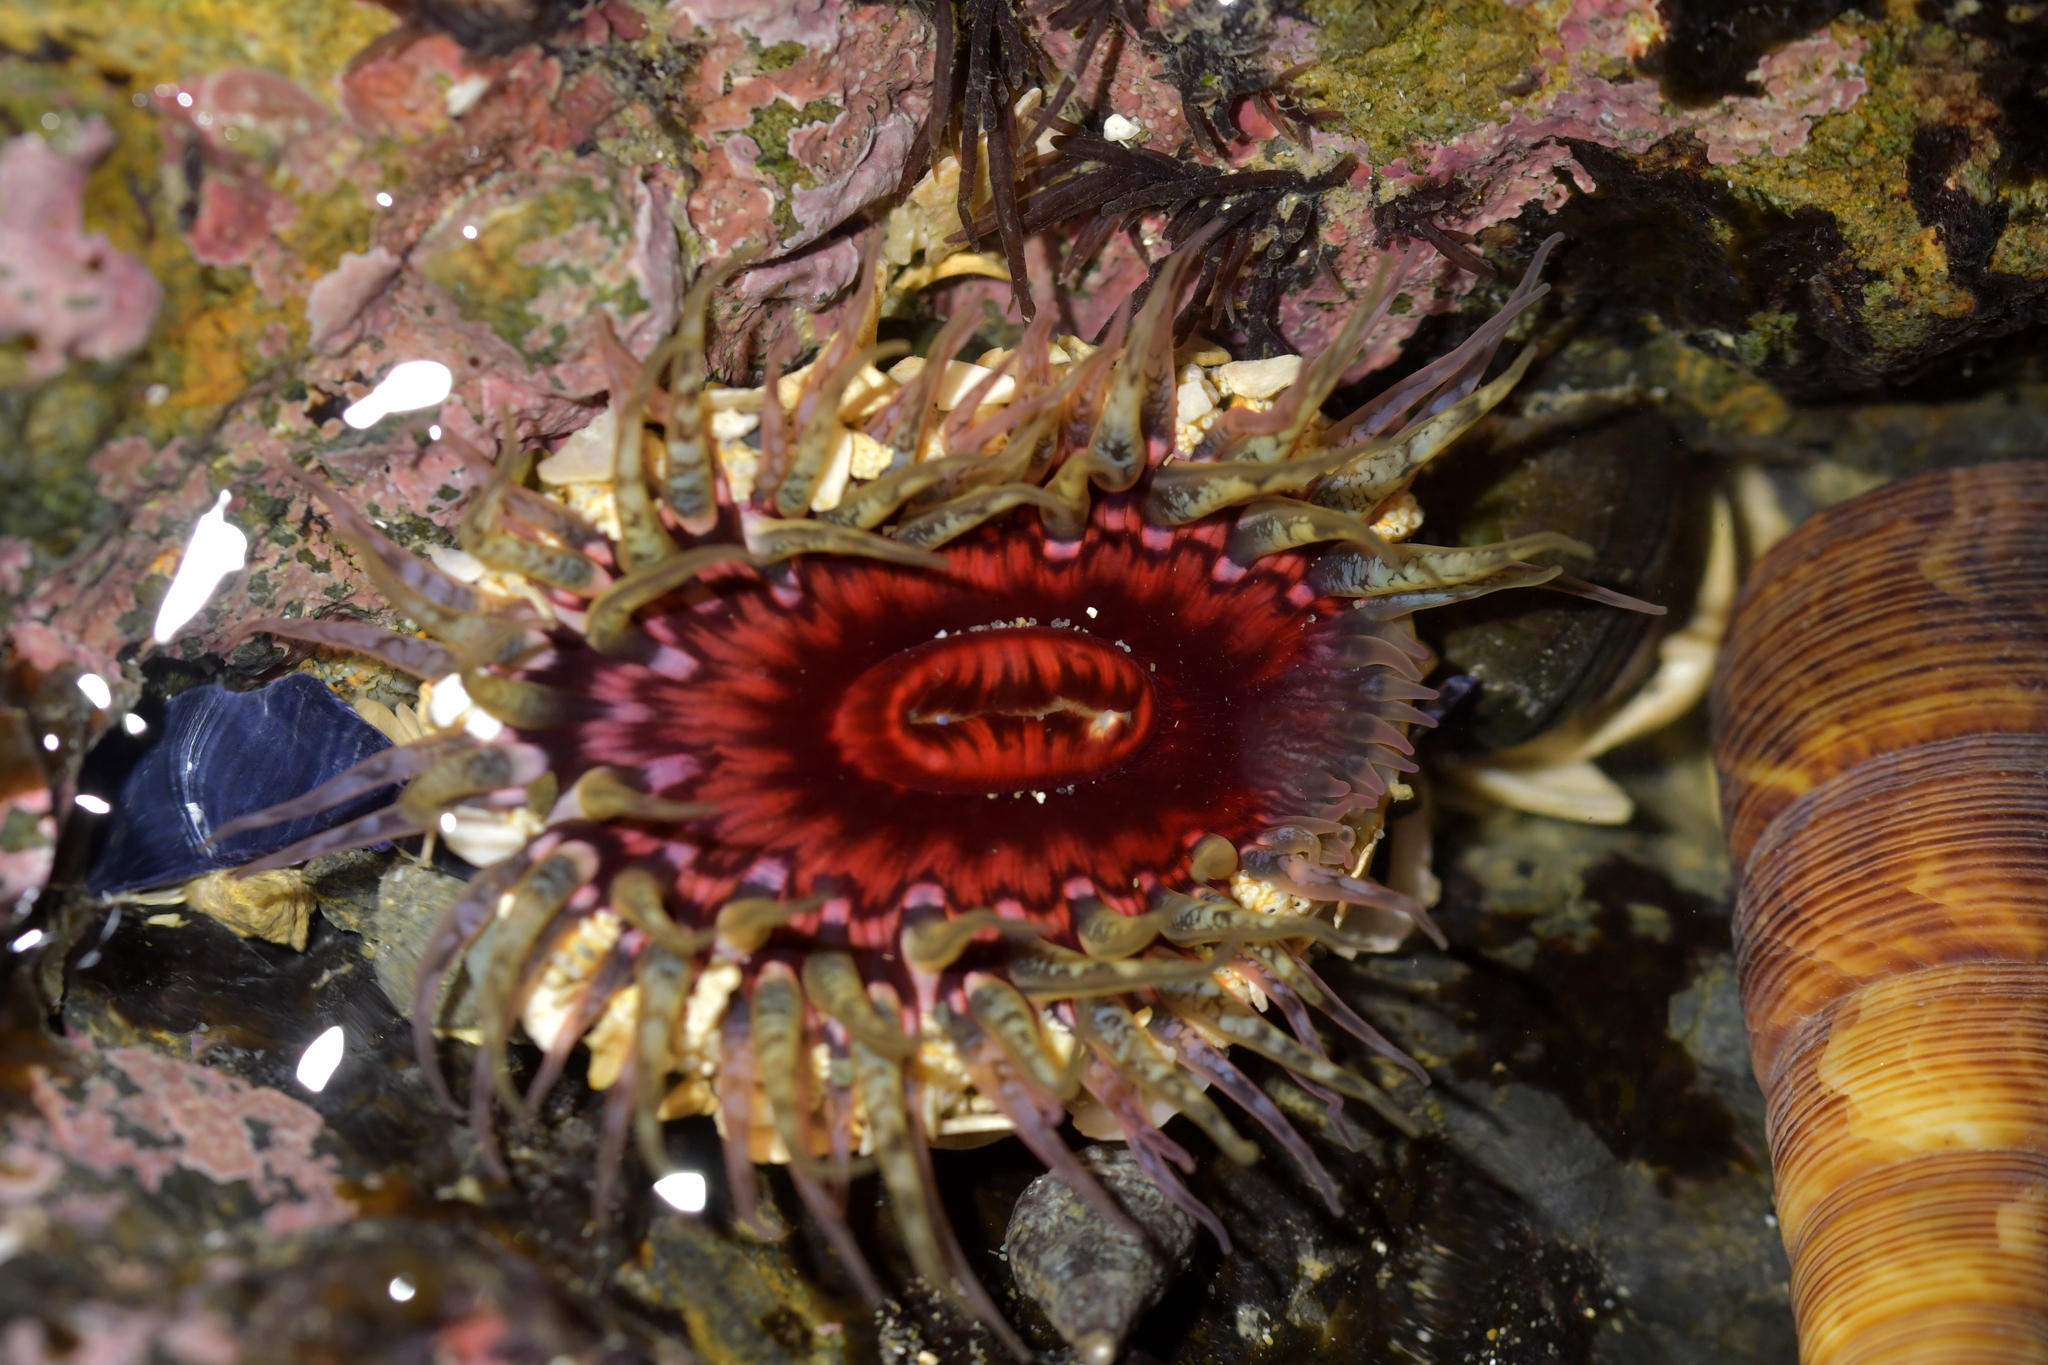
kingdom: Animalia
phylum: Cnidaria
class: Anthozoa
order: Actiniaria
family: Actiniidae
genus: Oulactis
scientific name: Oulactis muscosa
